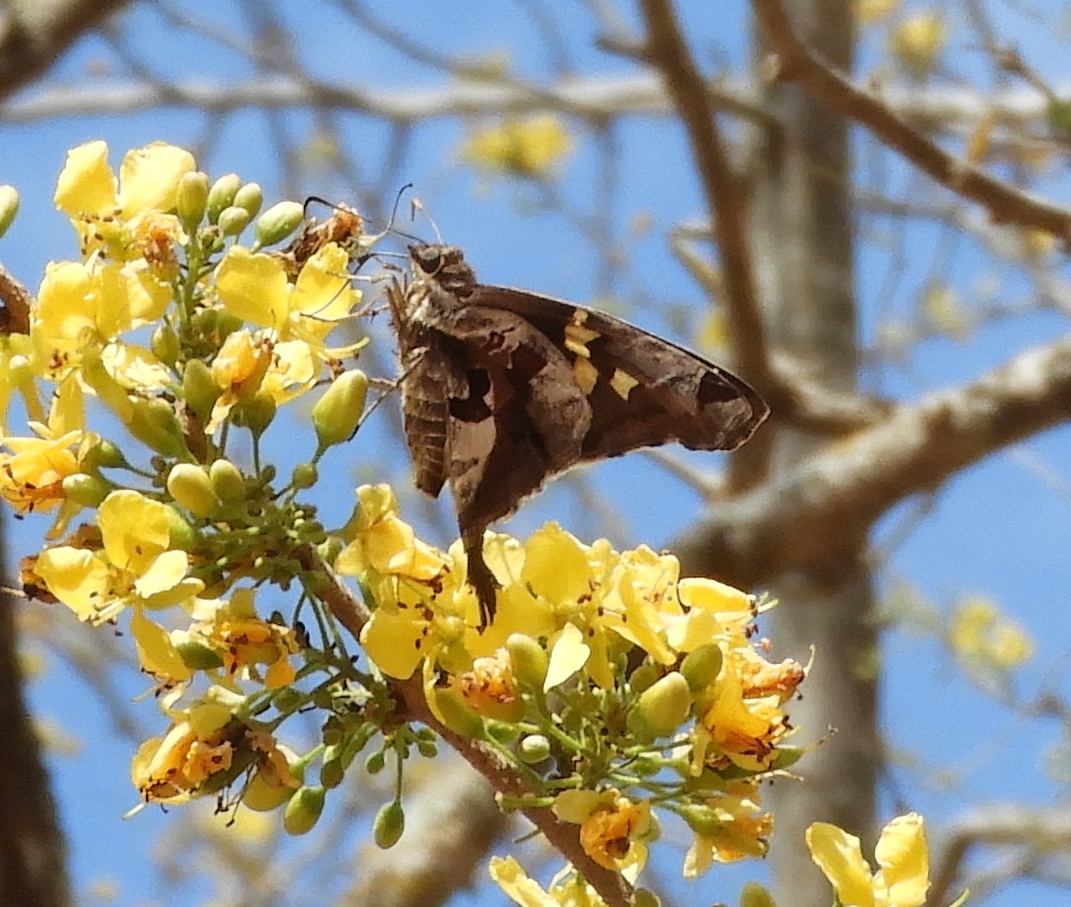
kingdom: Animalia
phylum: Arthropoda
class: Insecta
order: Lepidoptera
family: Hesperiidae
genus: Chioides
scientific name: Chioides zilpa
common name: Zilpa longtail
